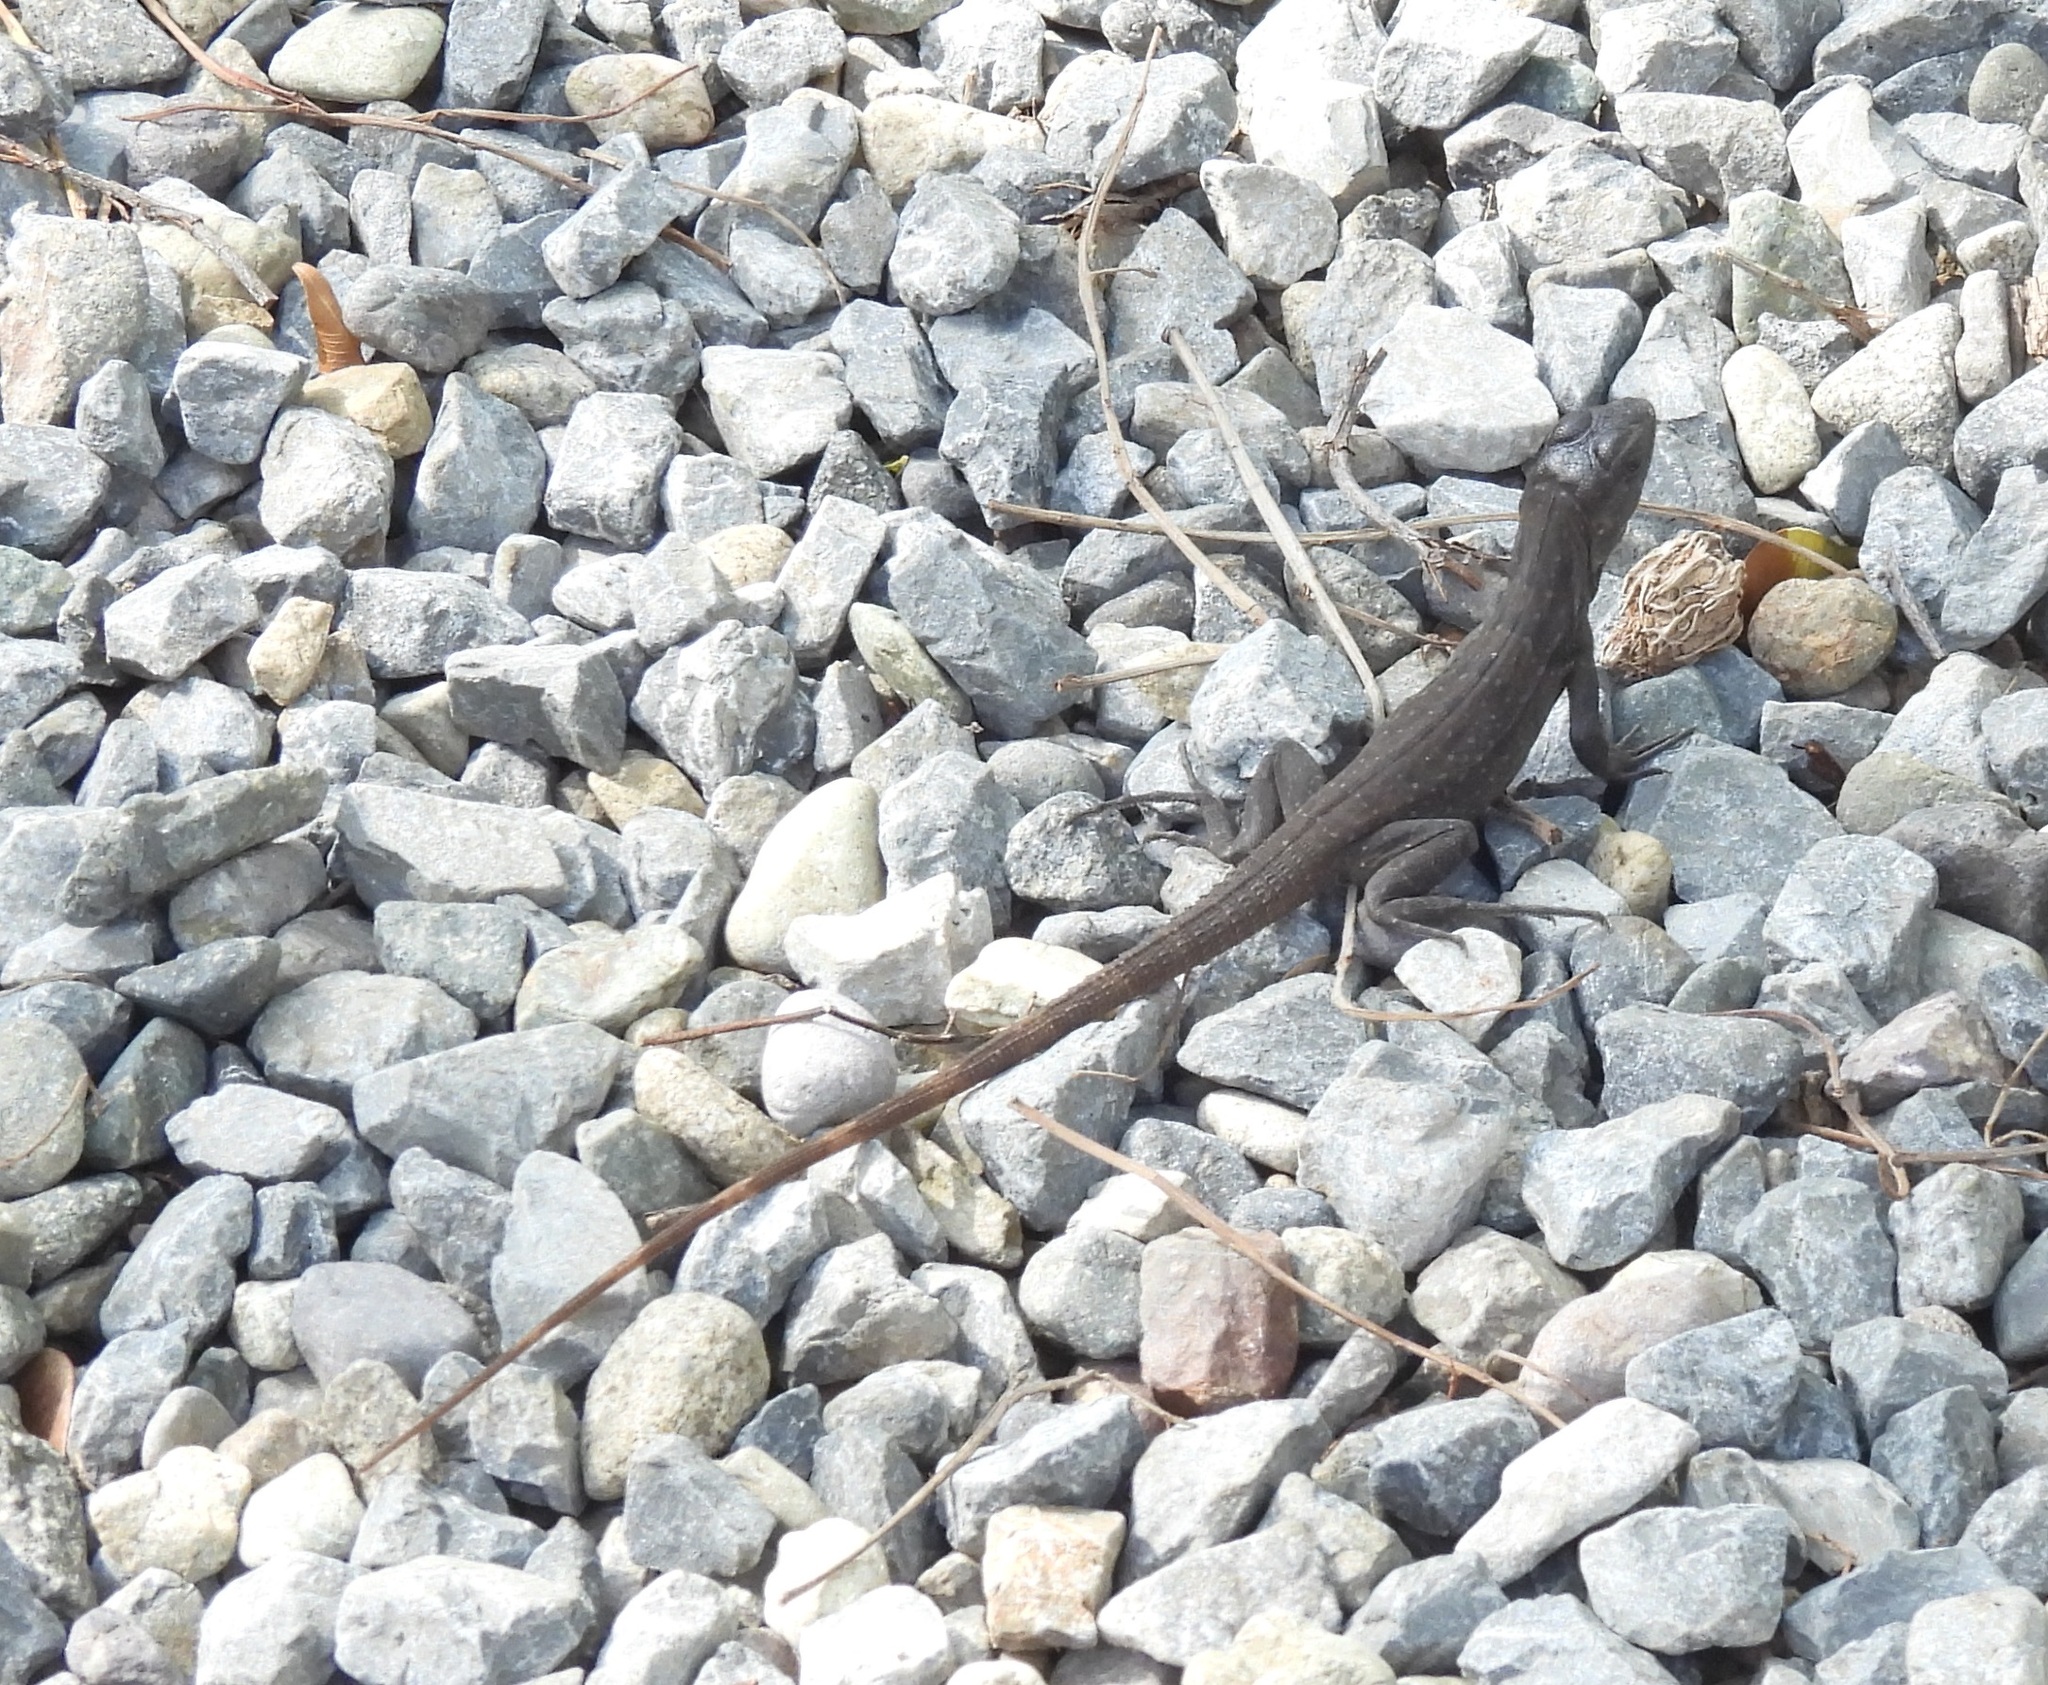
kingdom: Animalia
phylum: Chordata
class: Squamata
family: Iguanidae
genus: Ctenosaura
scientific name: Ctenosaura oedirhina
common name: Roatan spiny-tailed iguana
